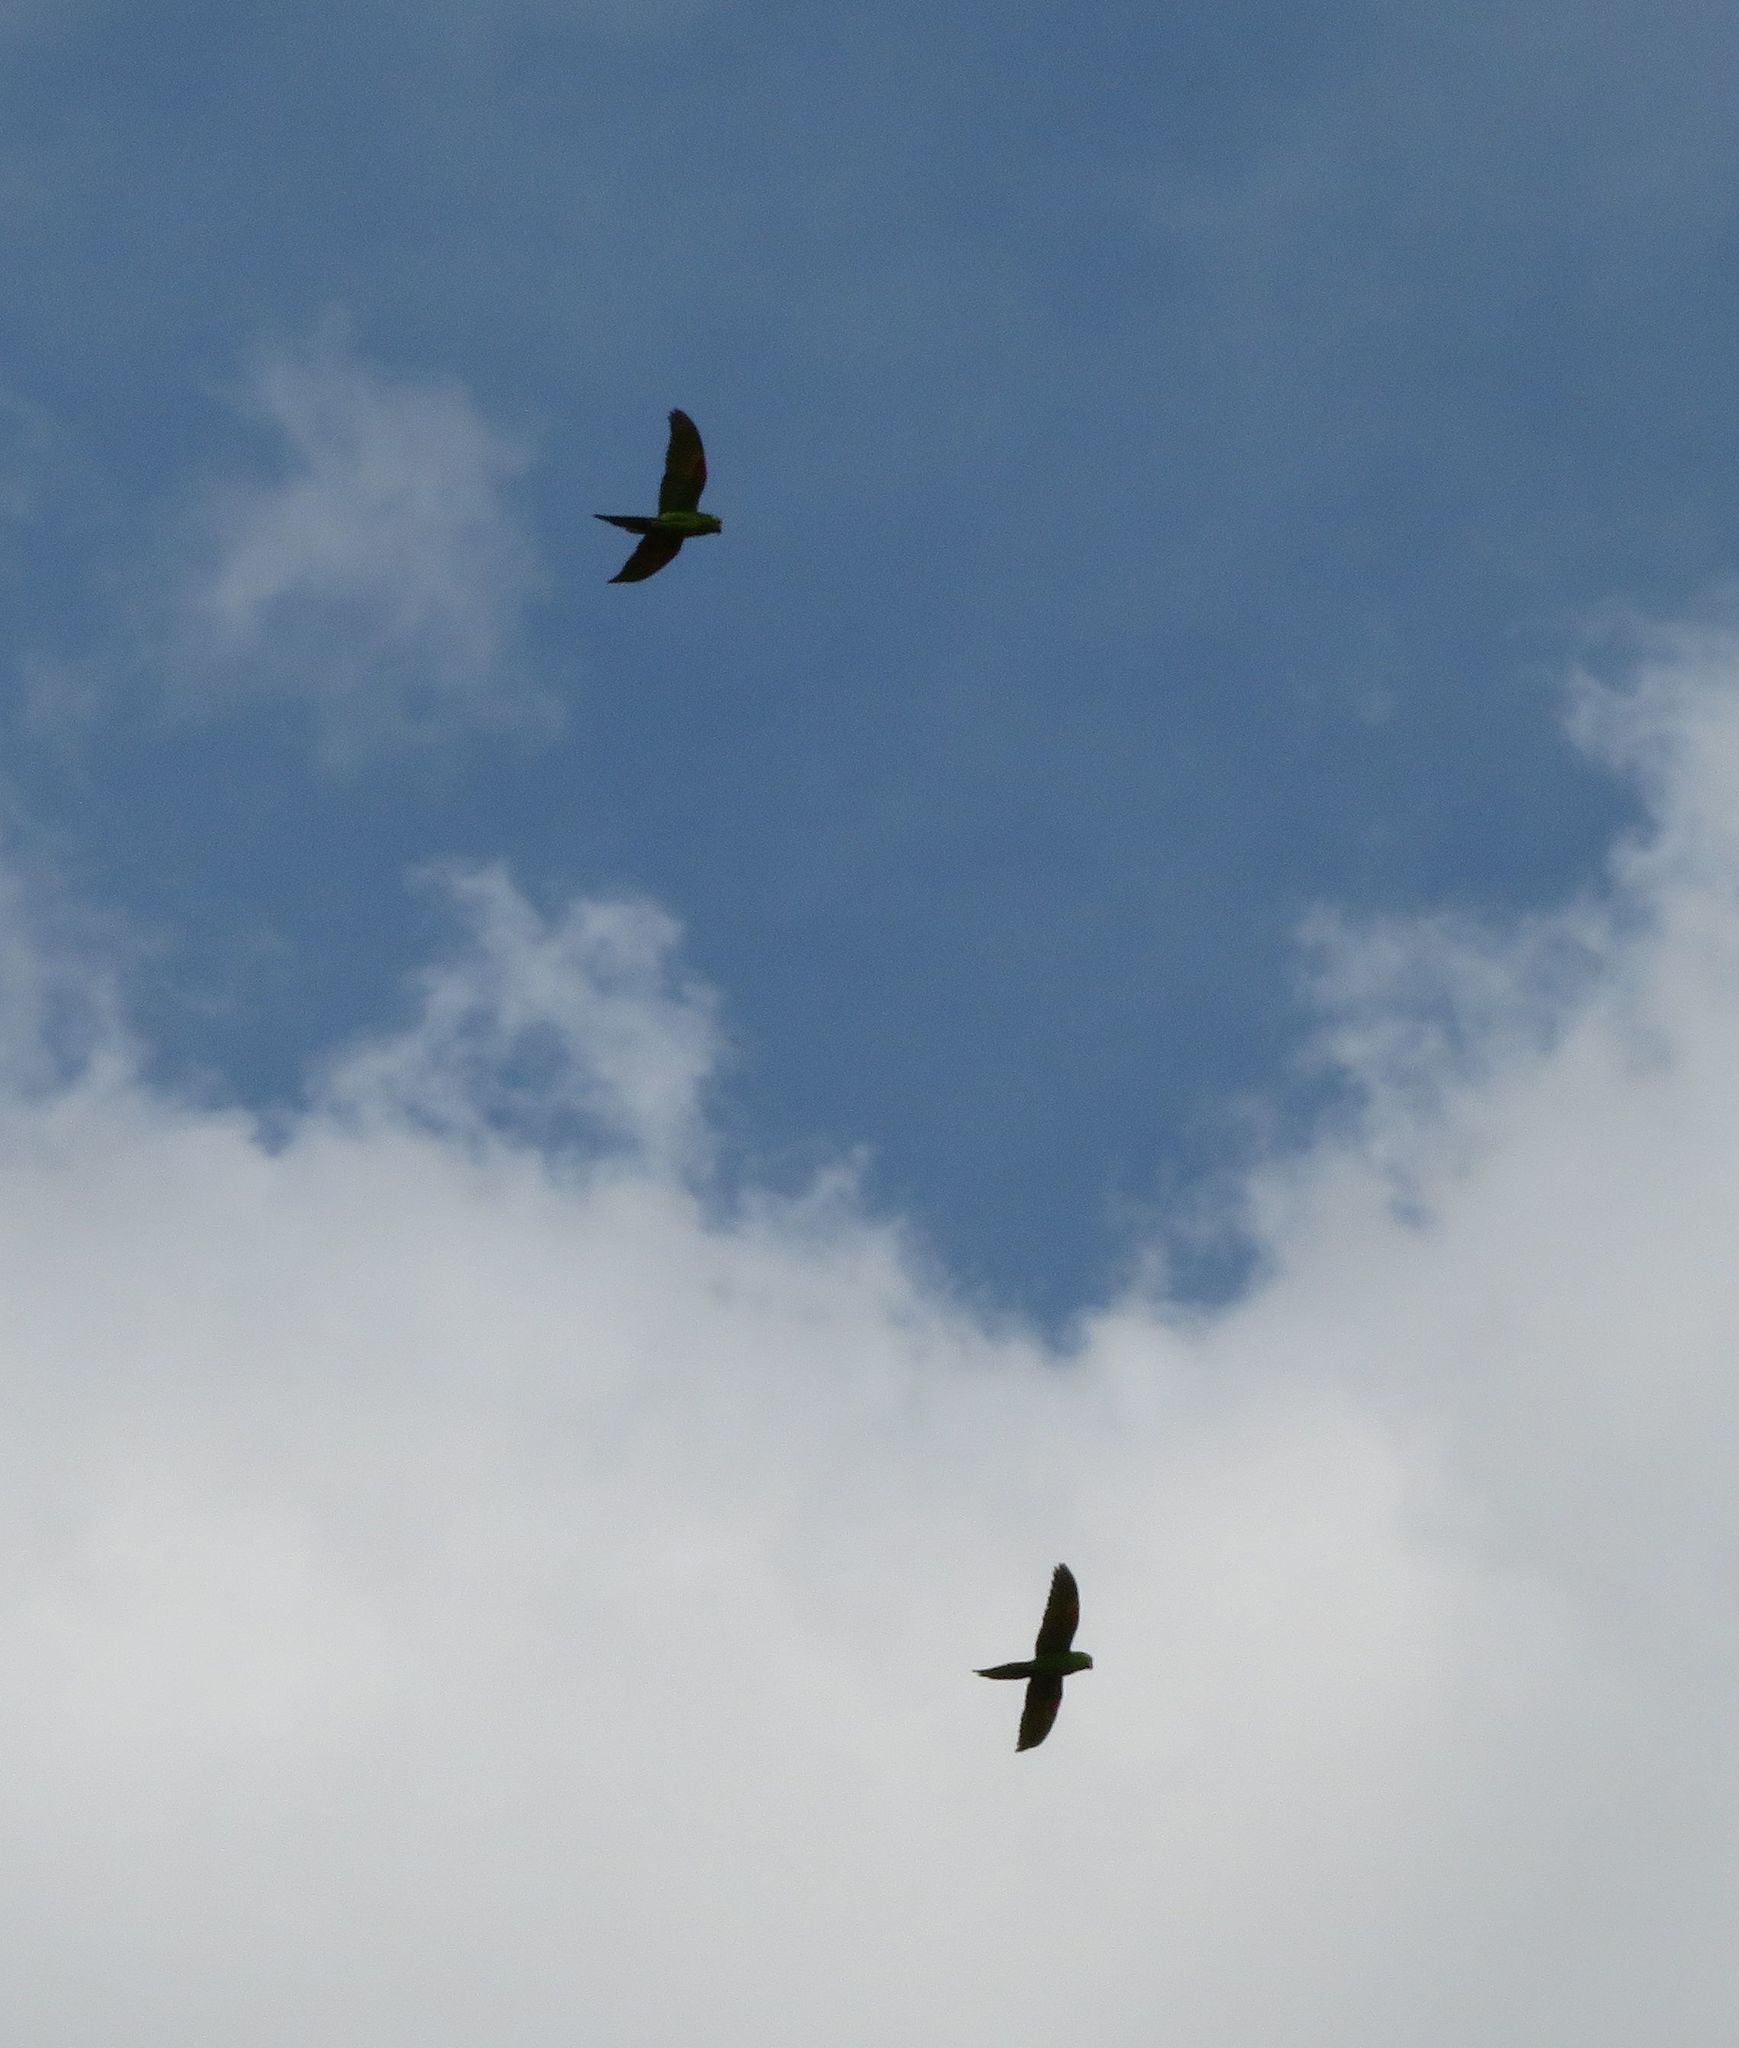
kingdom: Animalia
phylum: Chordata
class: Aves
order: Psittaciformes
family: Psittacidae
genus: Aratinga
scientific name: Aratinga leucophthalma
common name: White-eyed parakeet
